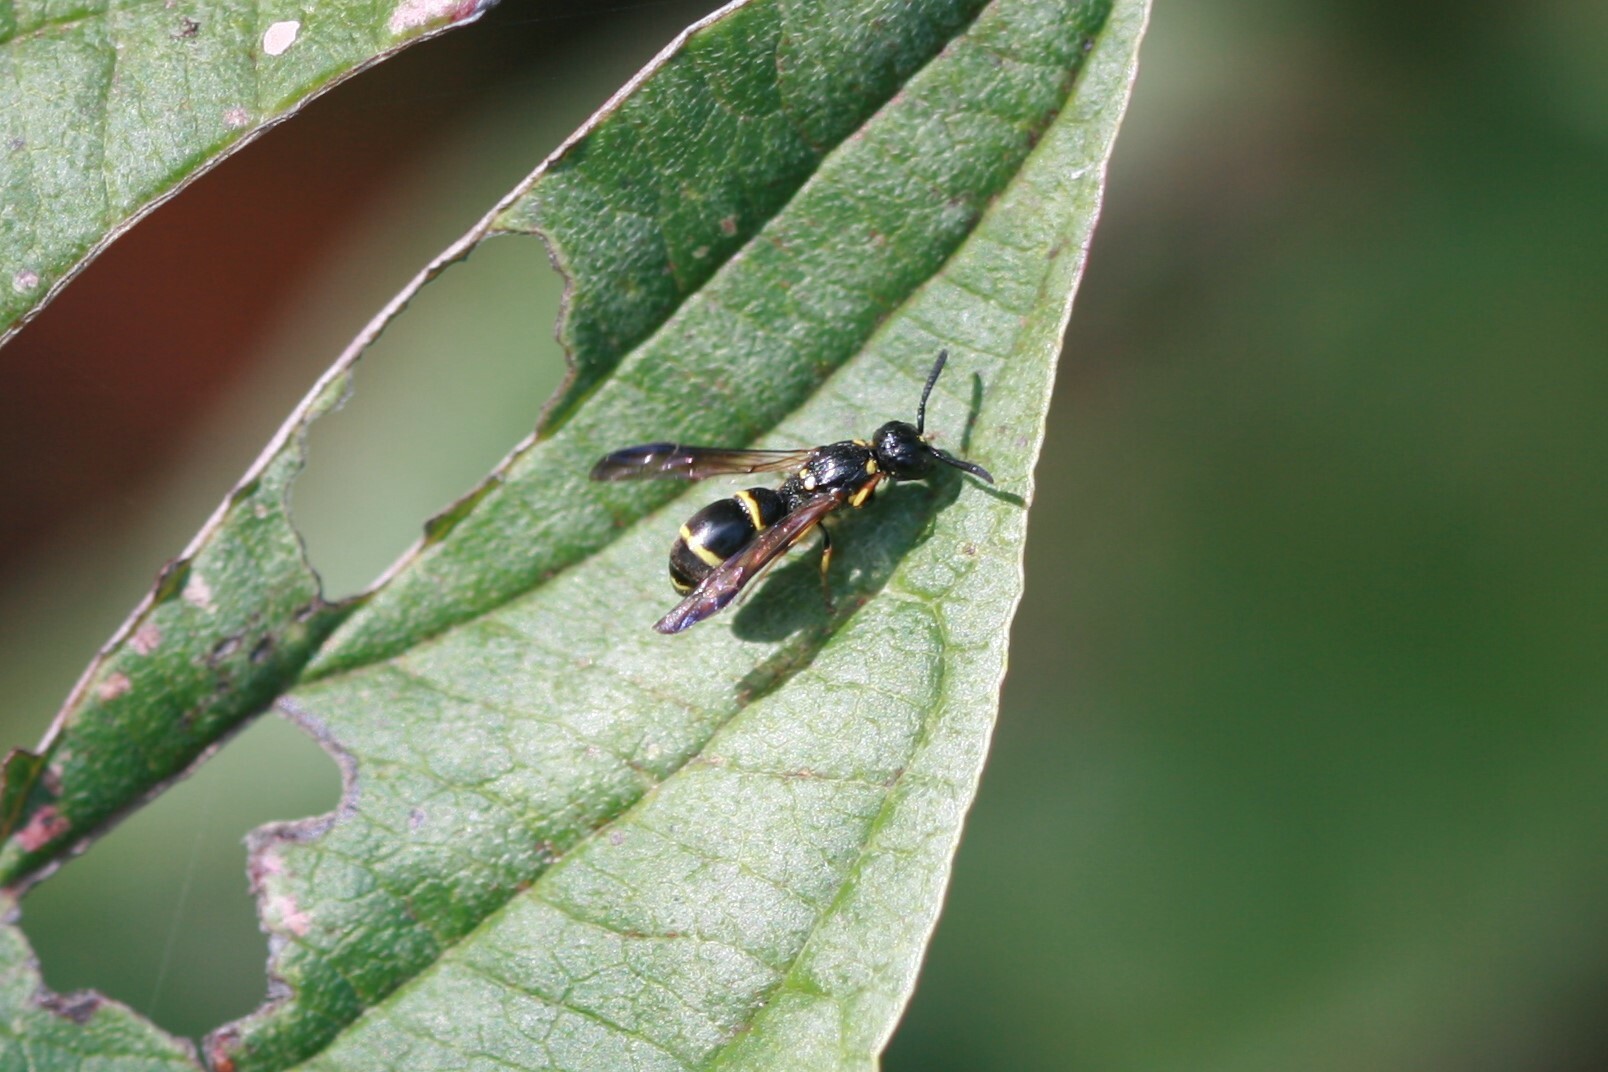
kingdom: Animalia
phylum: Arthropoda
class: Insecta
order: Hymenoptera
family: Eumenidae
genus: Symmorphus
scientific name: Symmorphus
